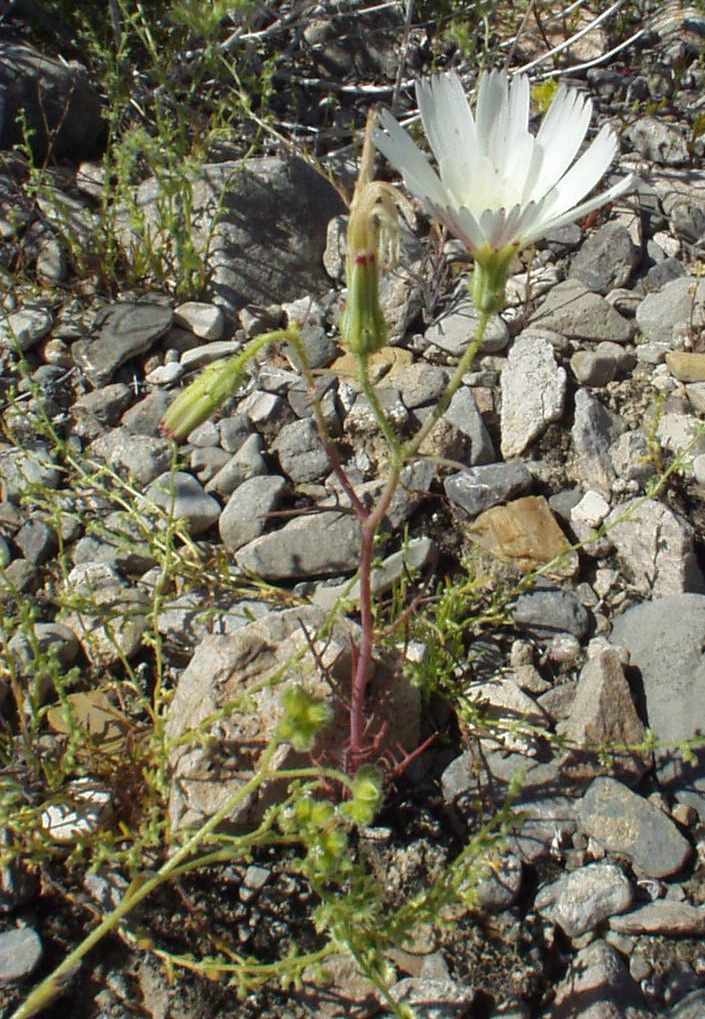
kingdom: Plantae
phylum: Tracheophyta
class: Magnoliopsida
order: Asterales
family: Asteraceae
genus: Calycoseris
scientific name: Calycoseris wrightii
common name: White tackstem
